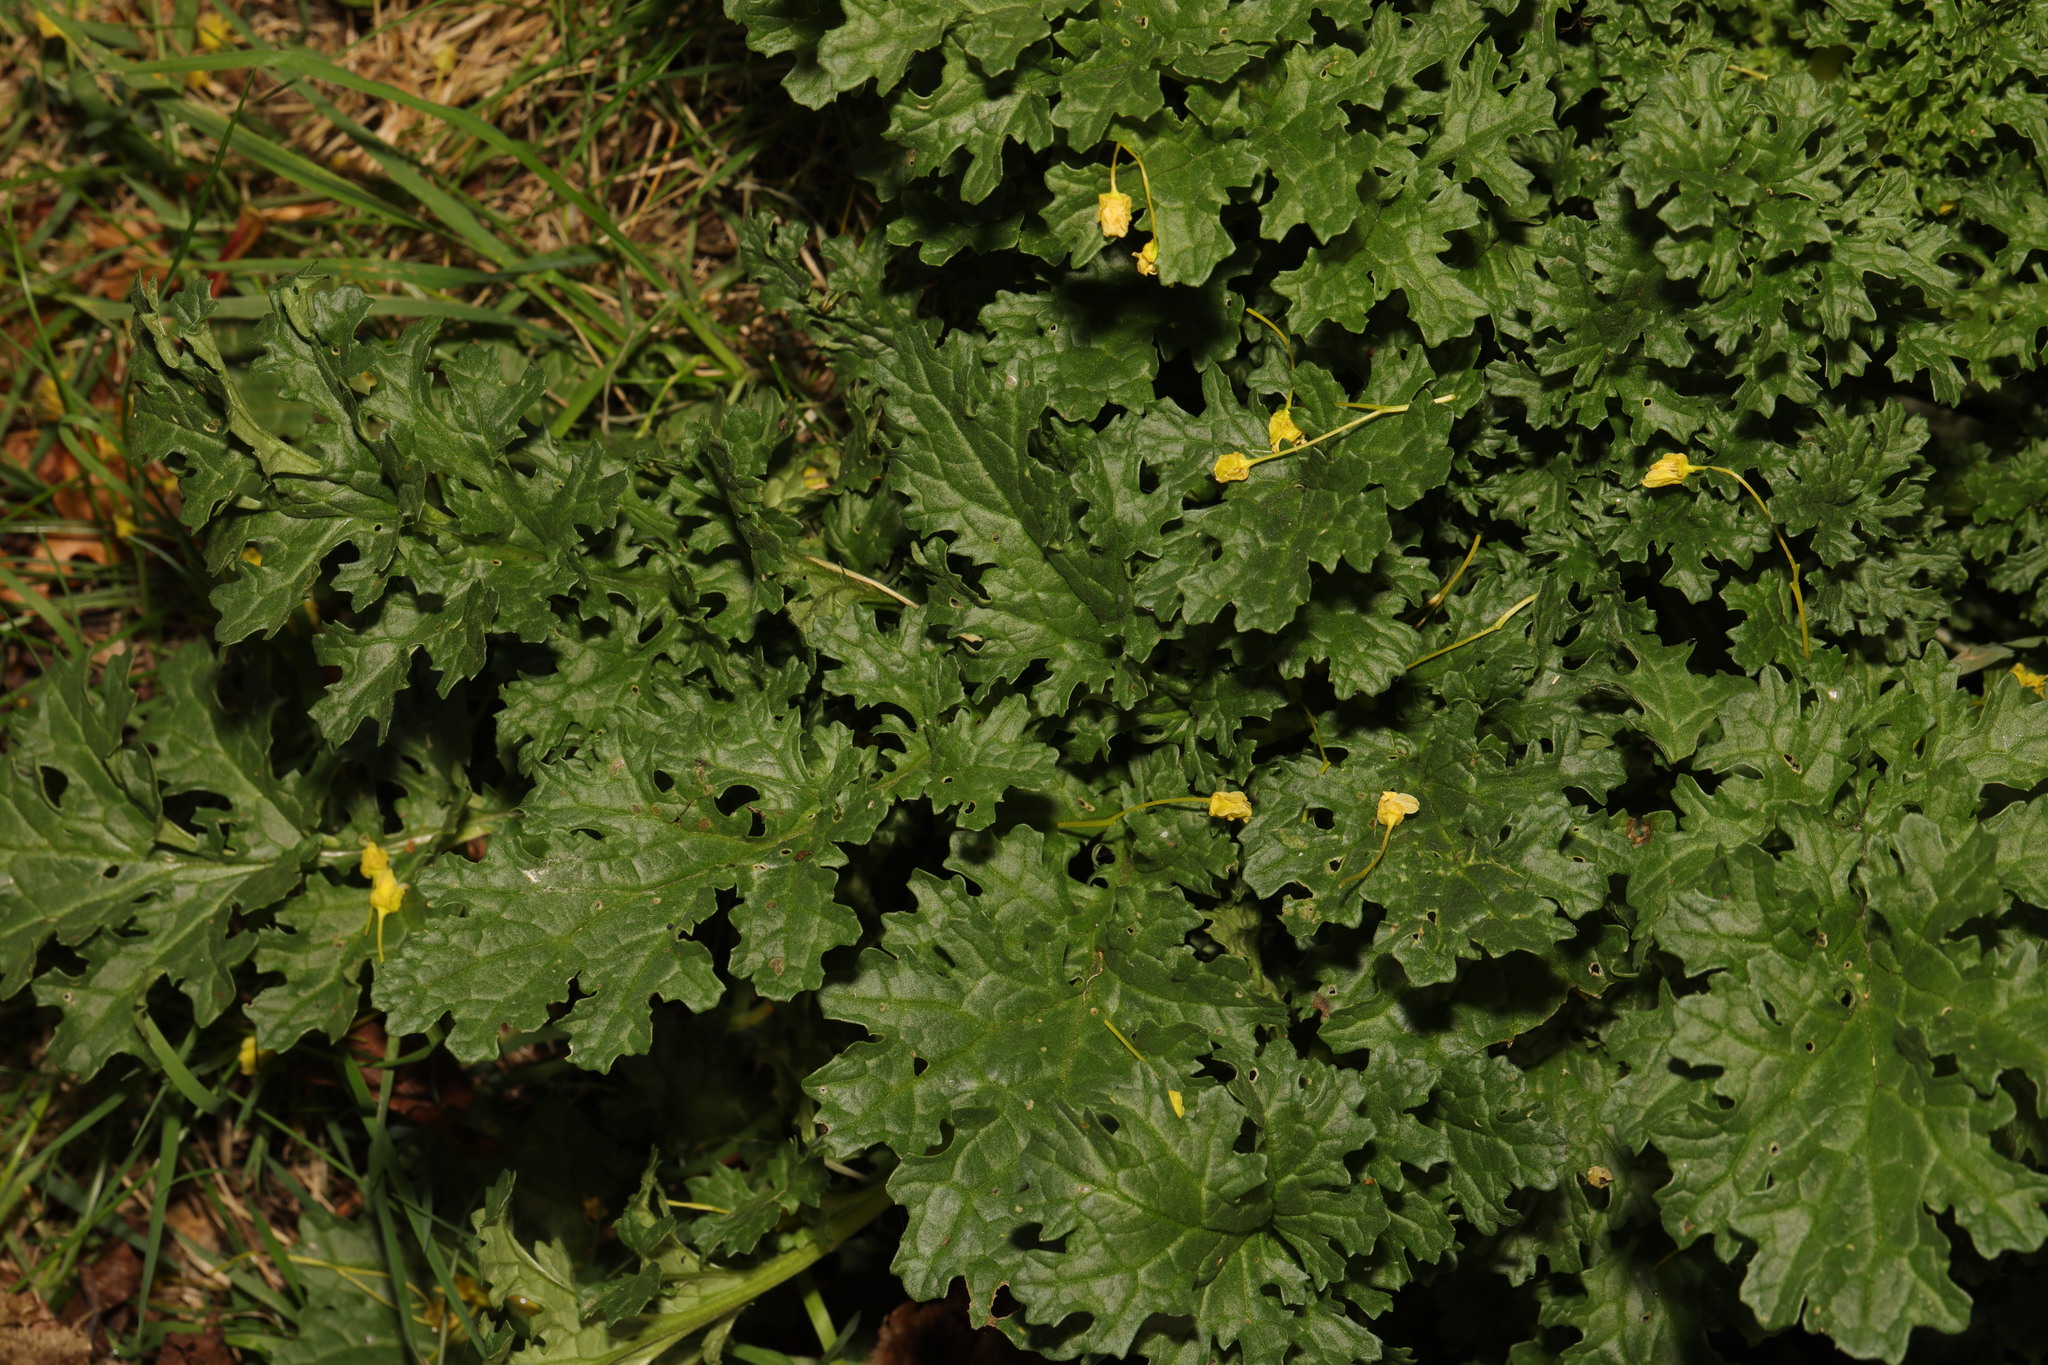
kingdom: Plantae
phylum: Tracheophyta
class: Magnoliopsida
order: Asterales
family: Asteraceae
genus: Jacobaea
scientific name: Jacobaea vulgaris
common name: Stinking willie
